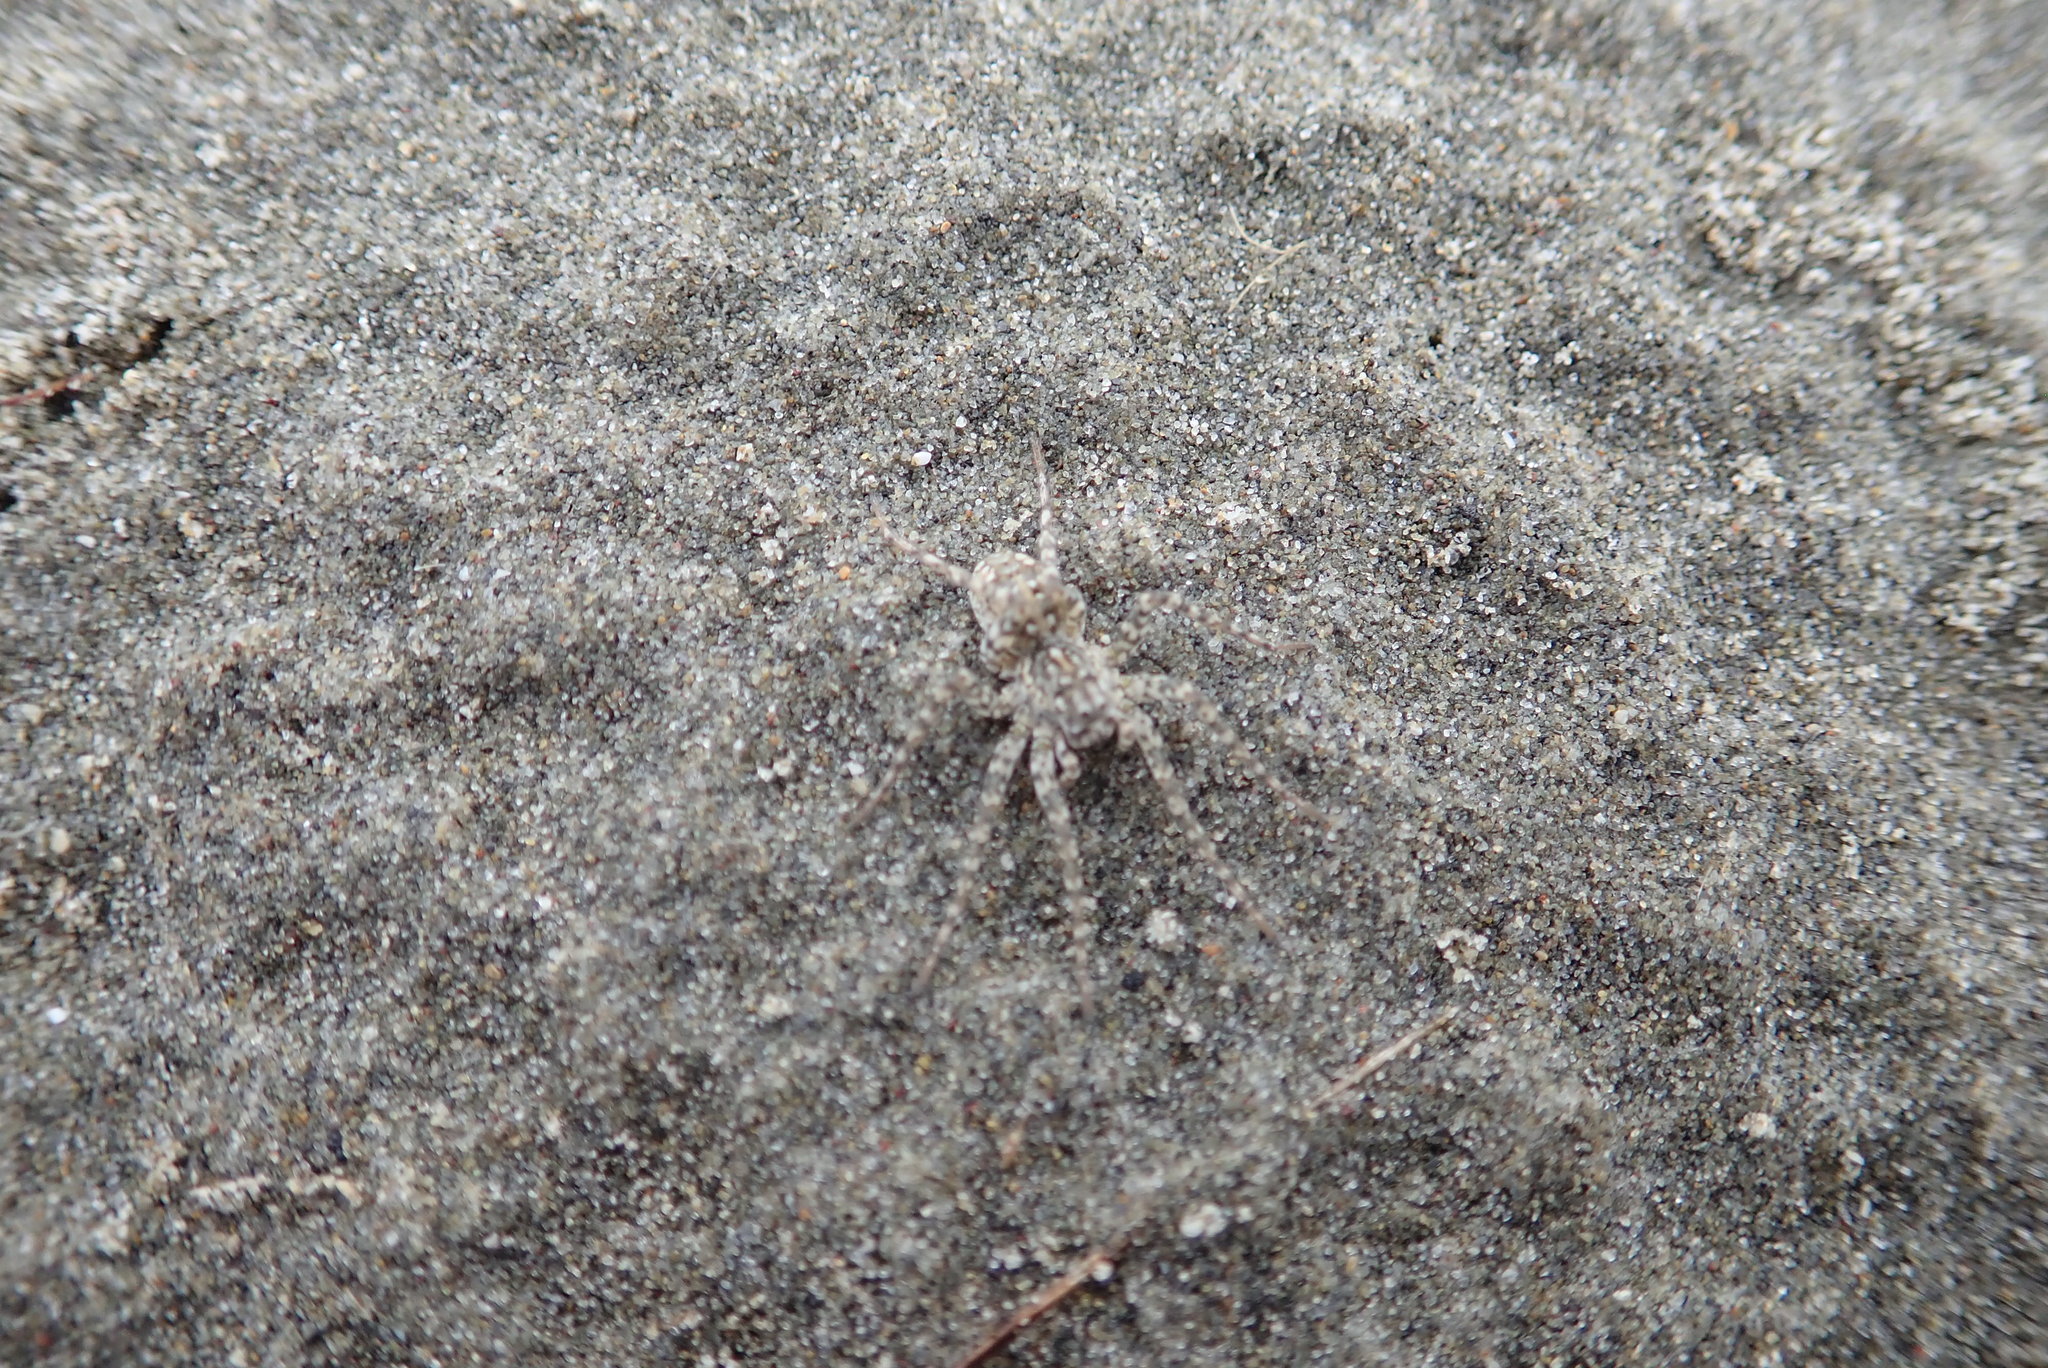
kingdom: Animalia
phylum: Arthropoda
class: Arachnida
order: Araneae
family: Lycosidae
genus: Anoteropsis
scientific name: Anoteropsis litoralis
